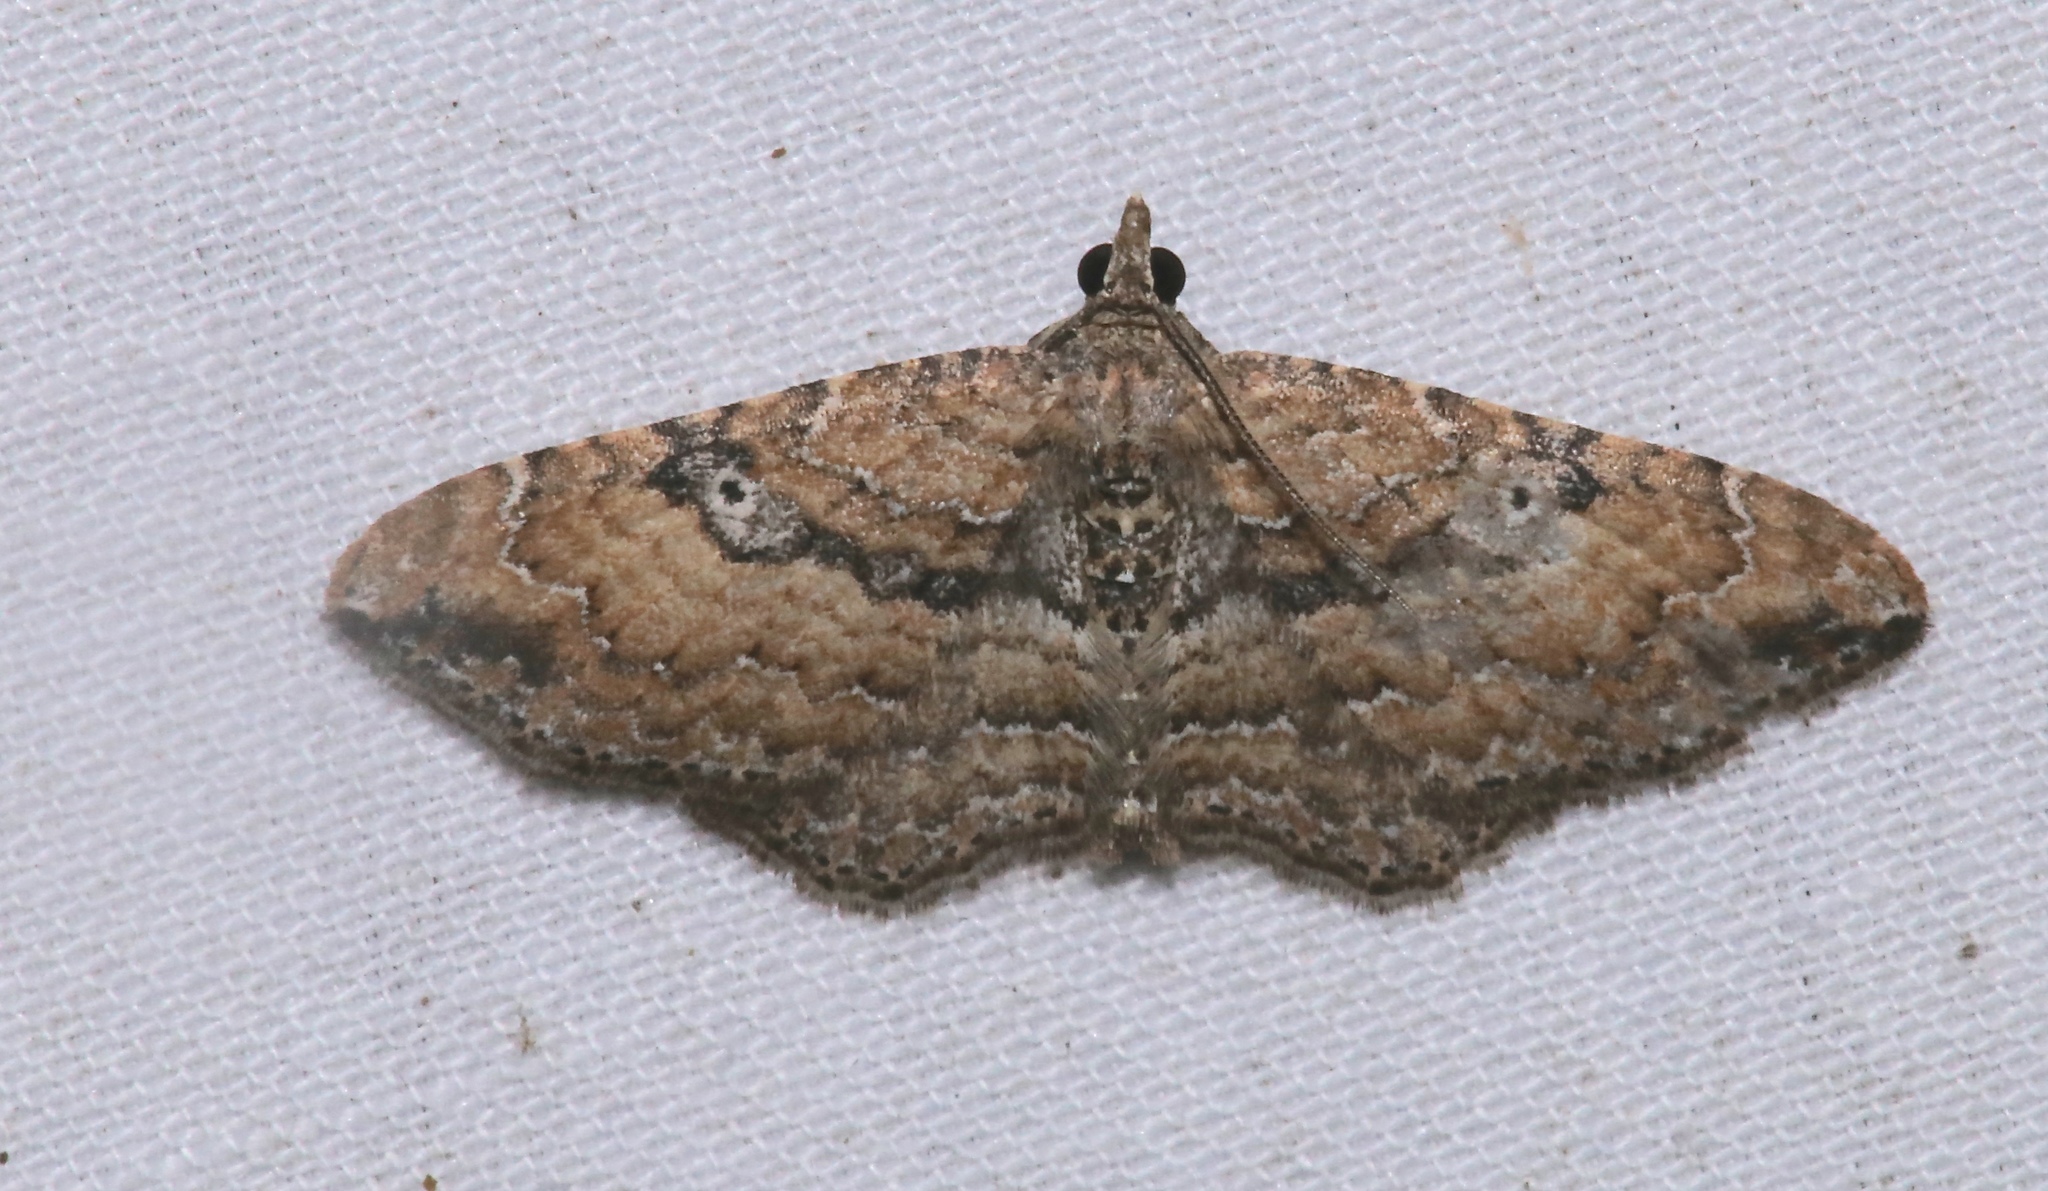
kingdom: Animalia
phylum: Arthropoda
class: Insecta
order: Lepidoptera
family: Geometridae
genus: Orthonama
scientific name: Orthonama obstipata
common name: The gem
